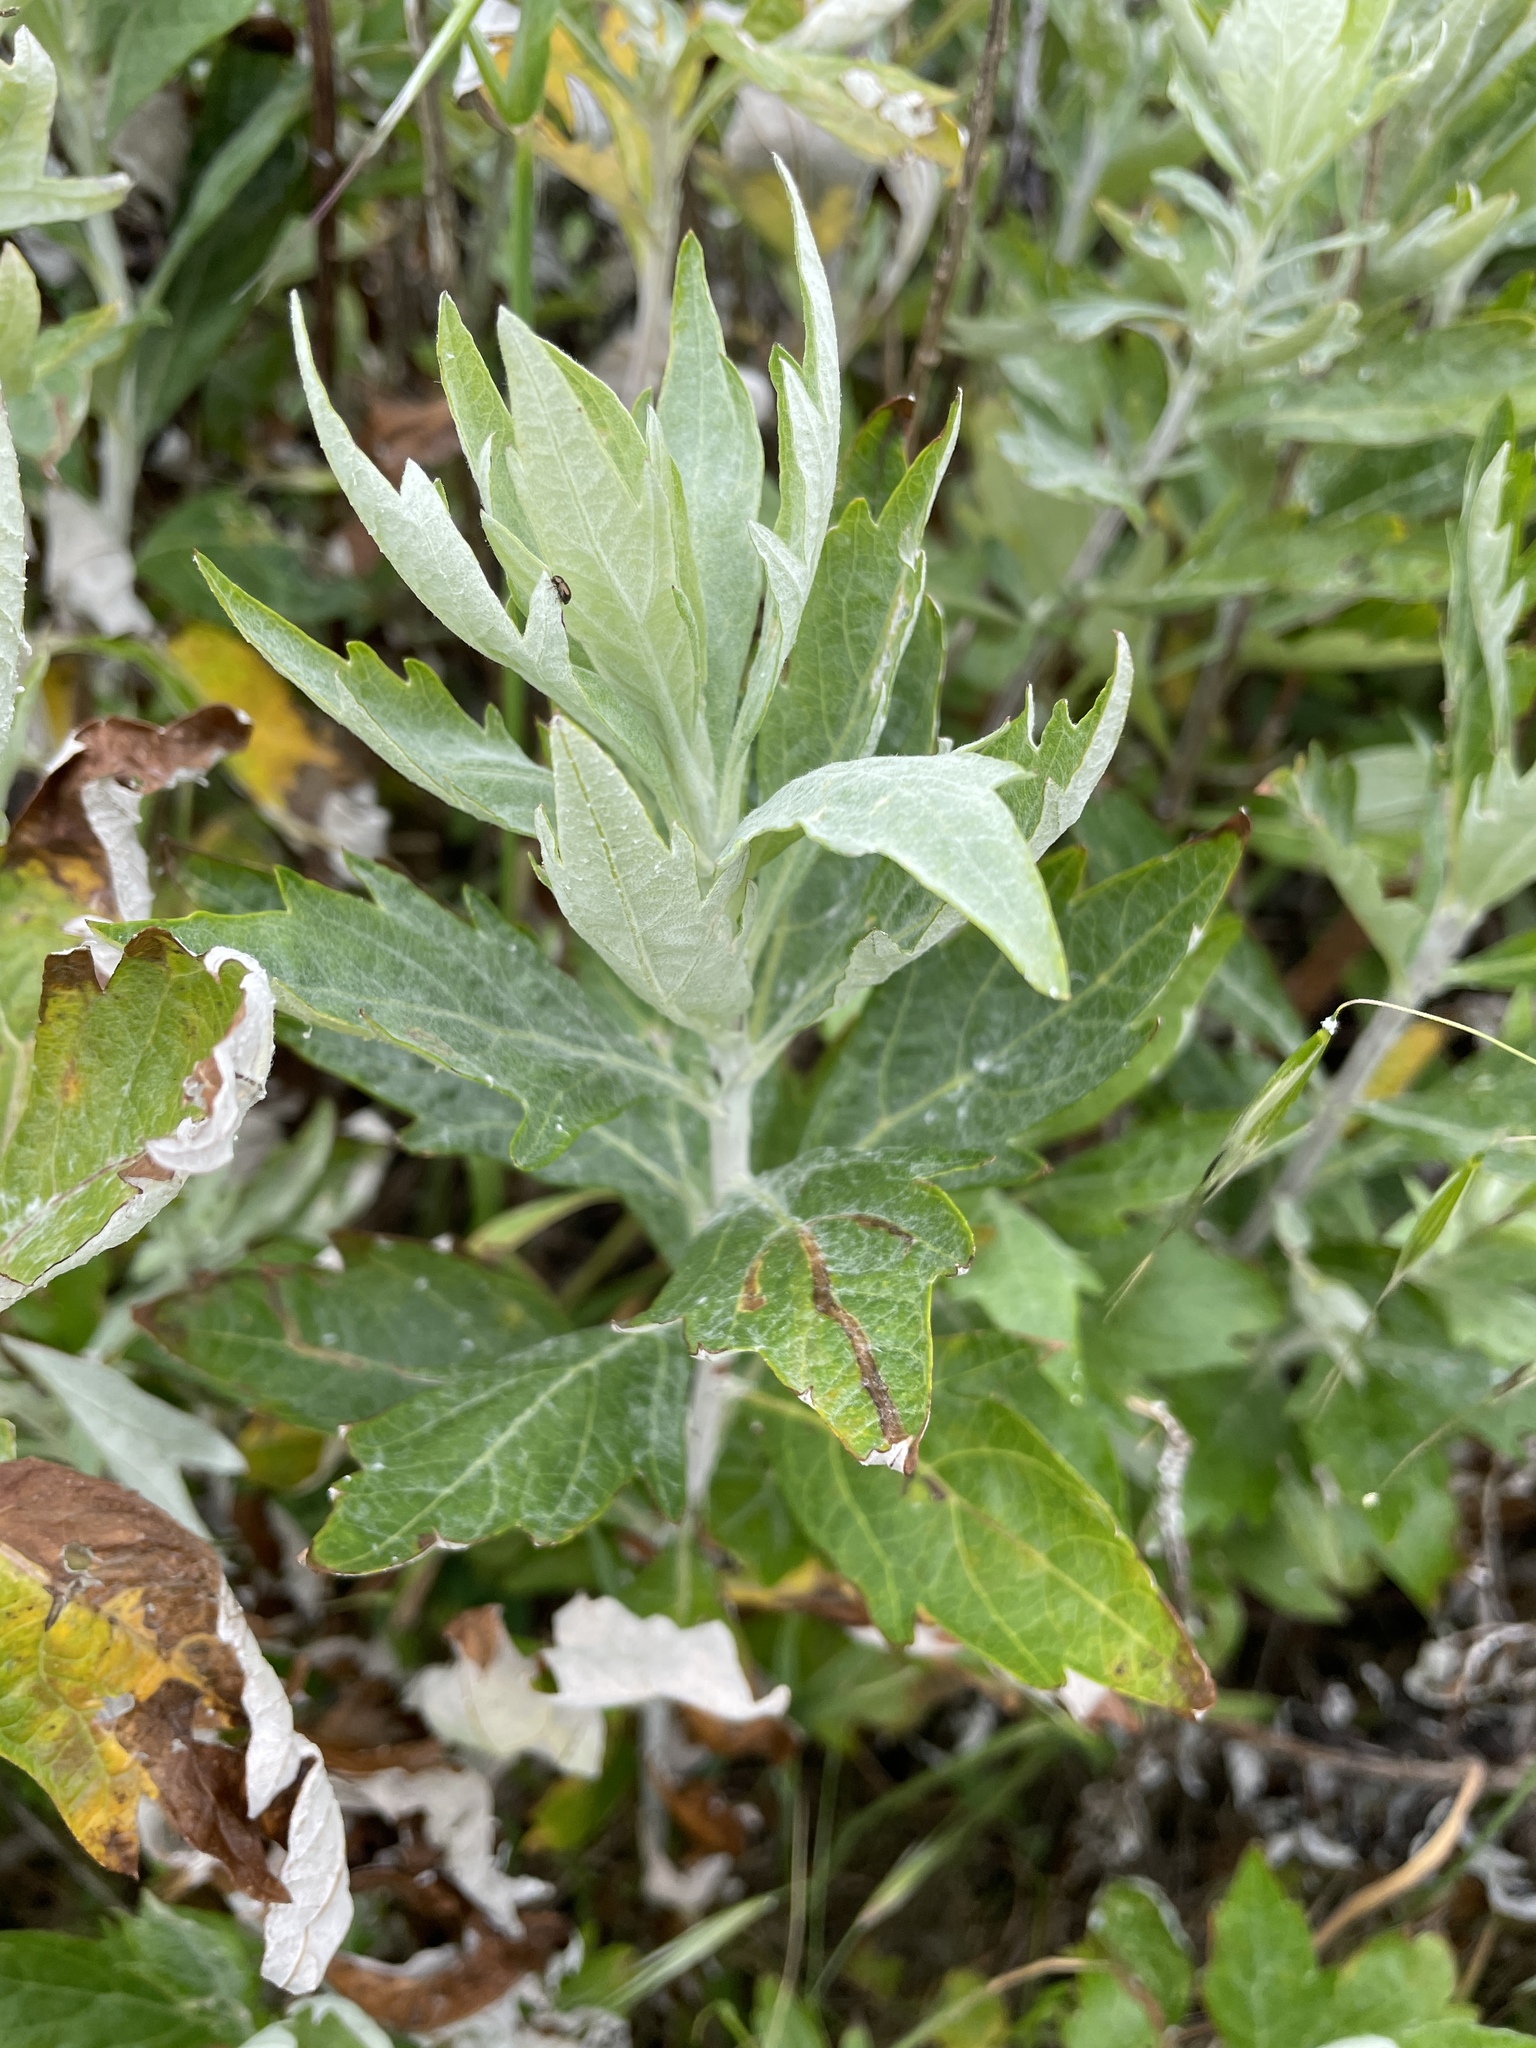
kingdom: Plantae
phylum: Tracheophyta
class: Magnoliopsida
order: Asterales
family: Asteraceae
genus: Artemisia
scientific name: Artemisia douglasiana
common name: Northwest mugwort
